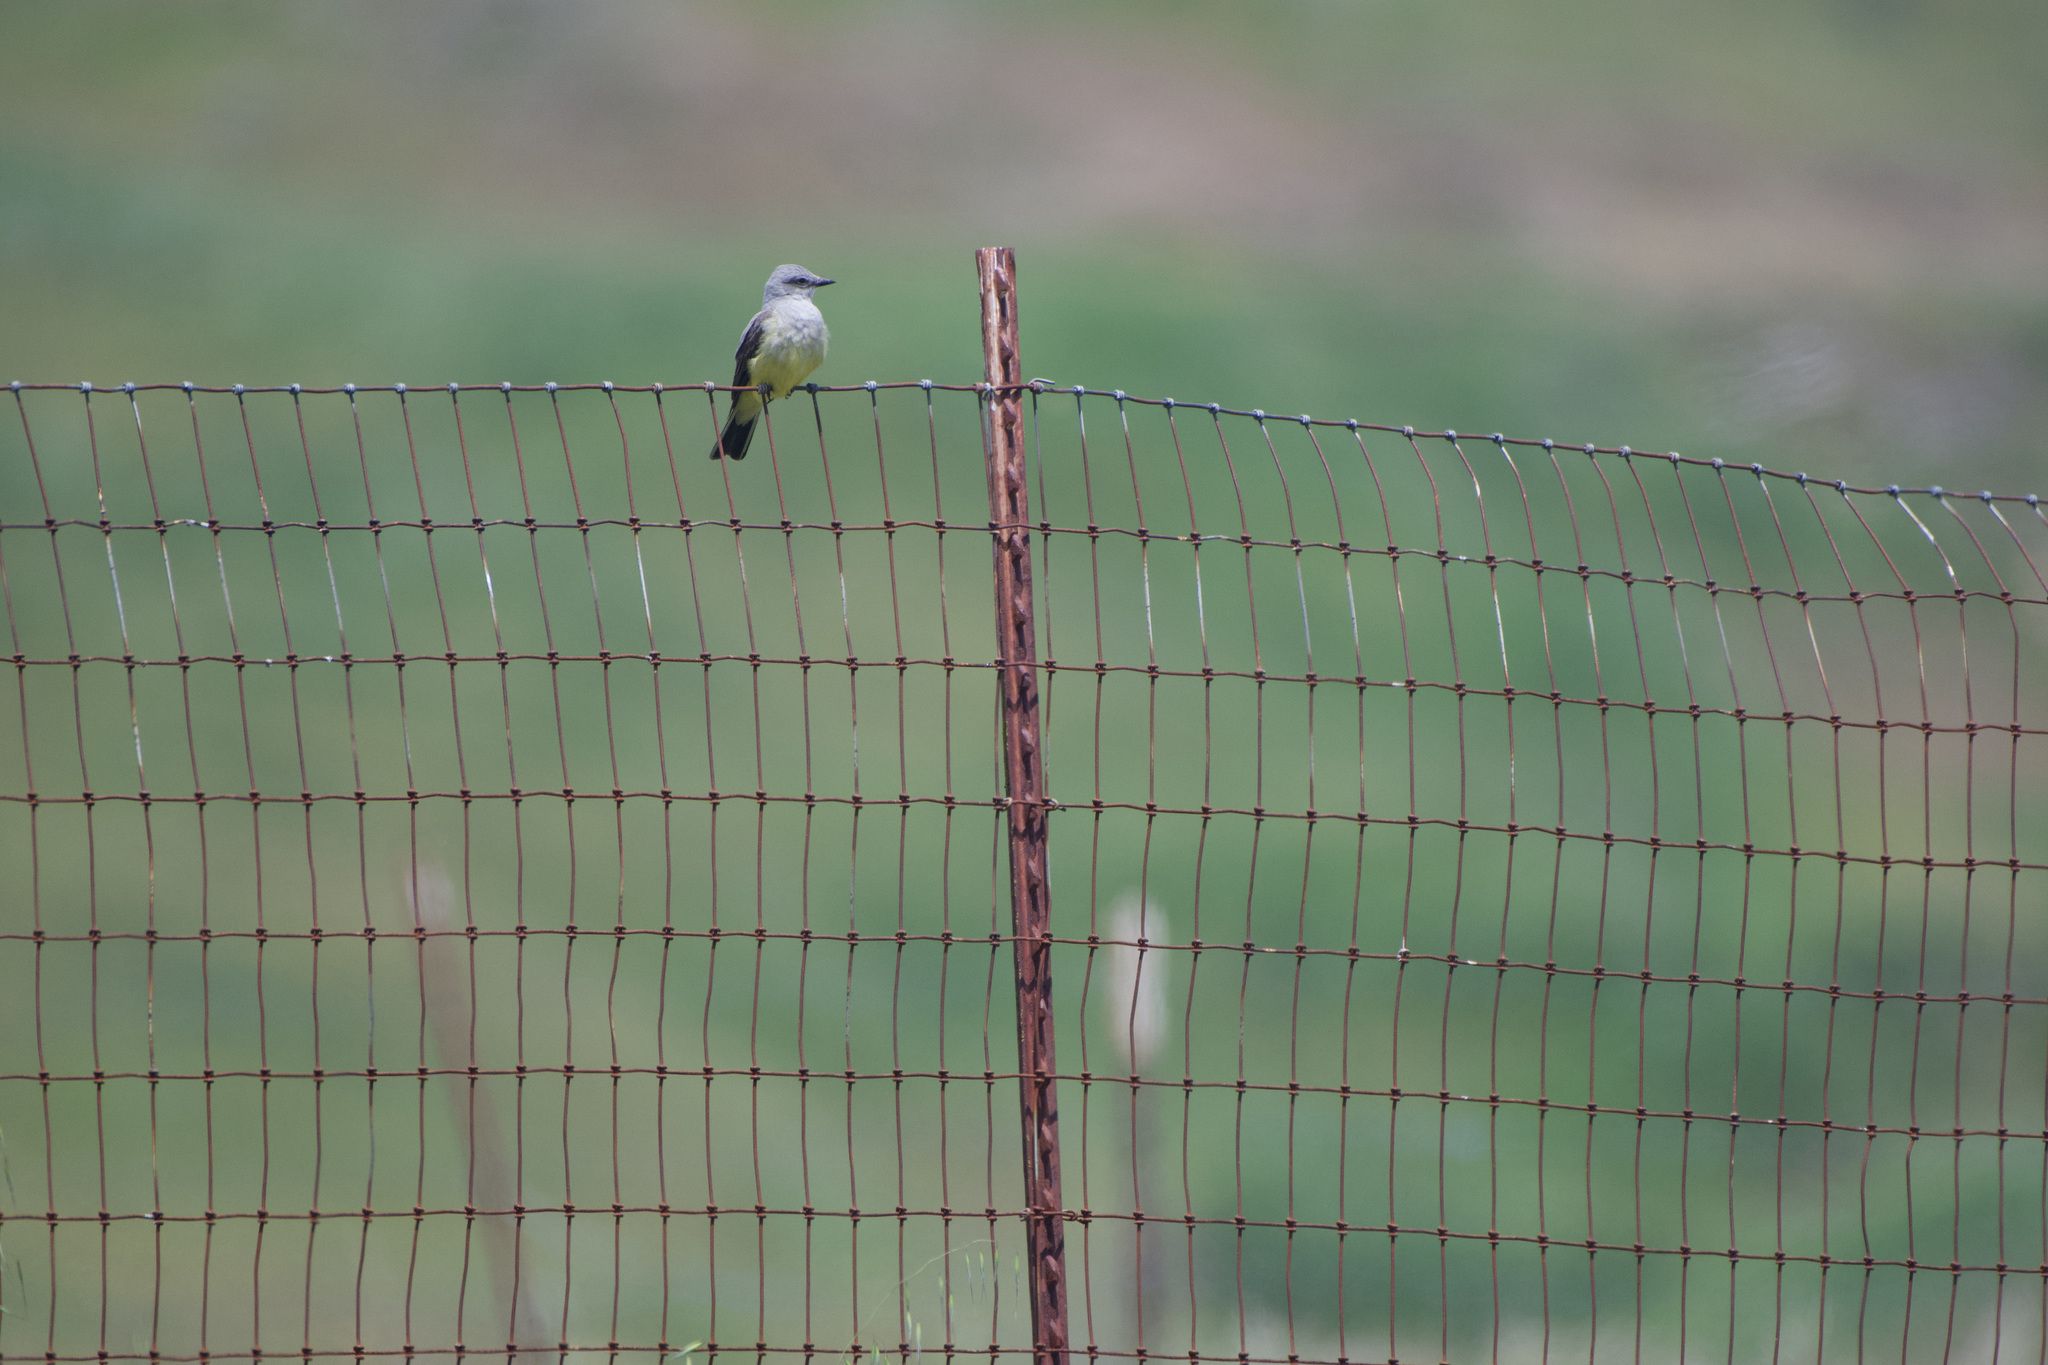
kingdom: Animalia
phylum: Chordata
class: Aves
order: Passeriformes
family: Tyrannidae
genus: Tyrannus
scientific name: Tyrannus verticalis
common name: Western kingbird
